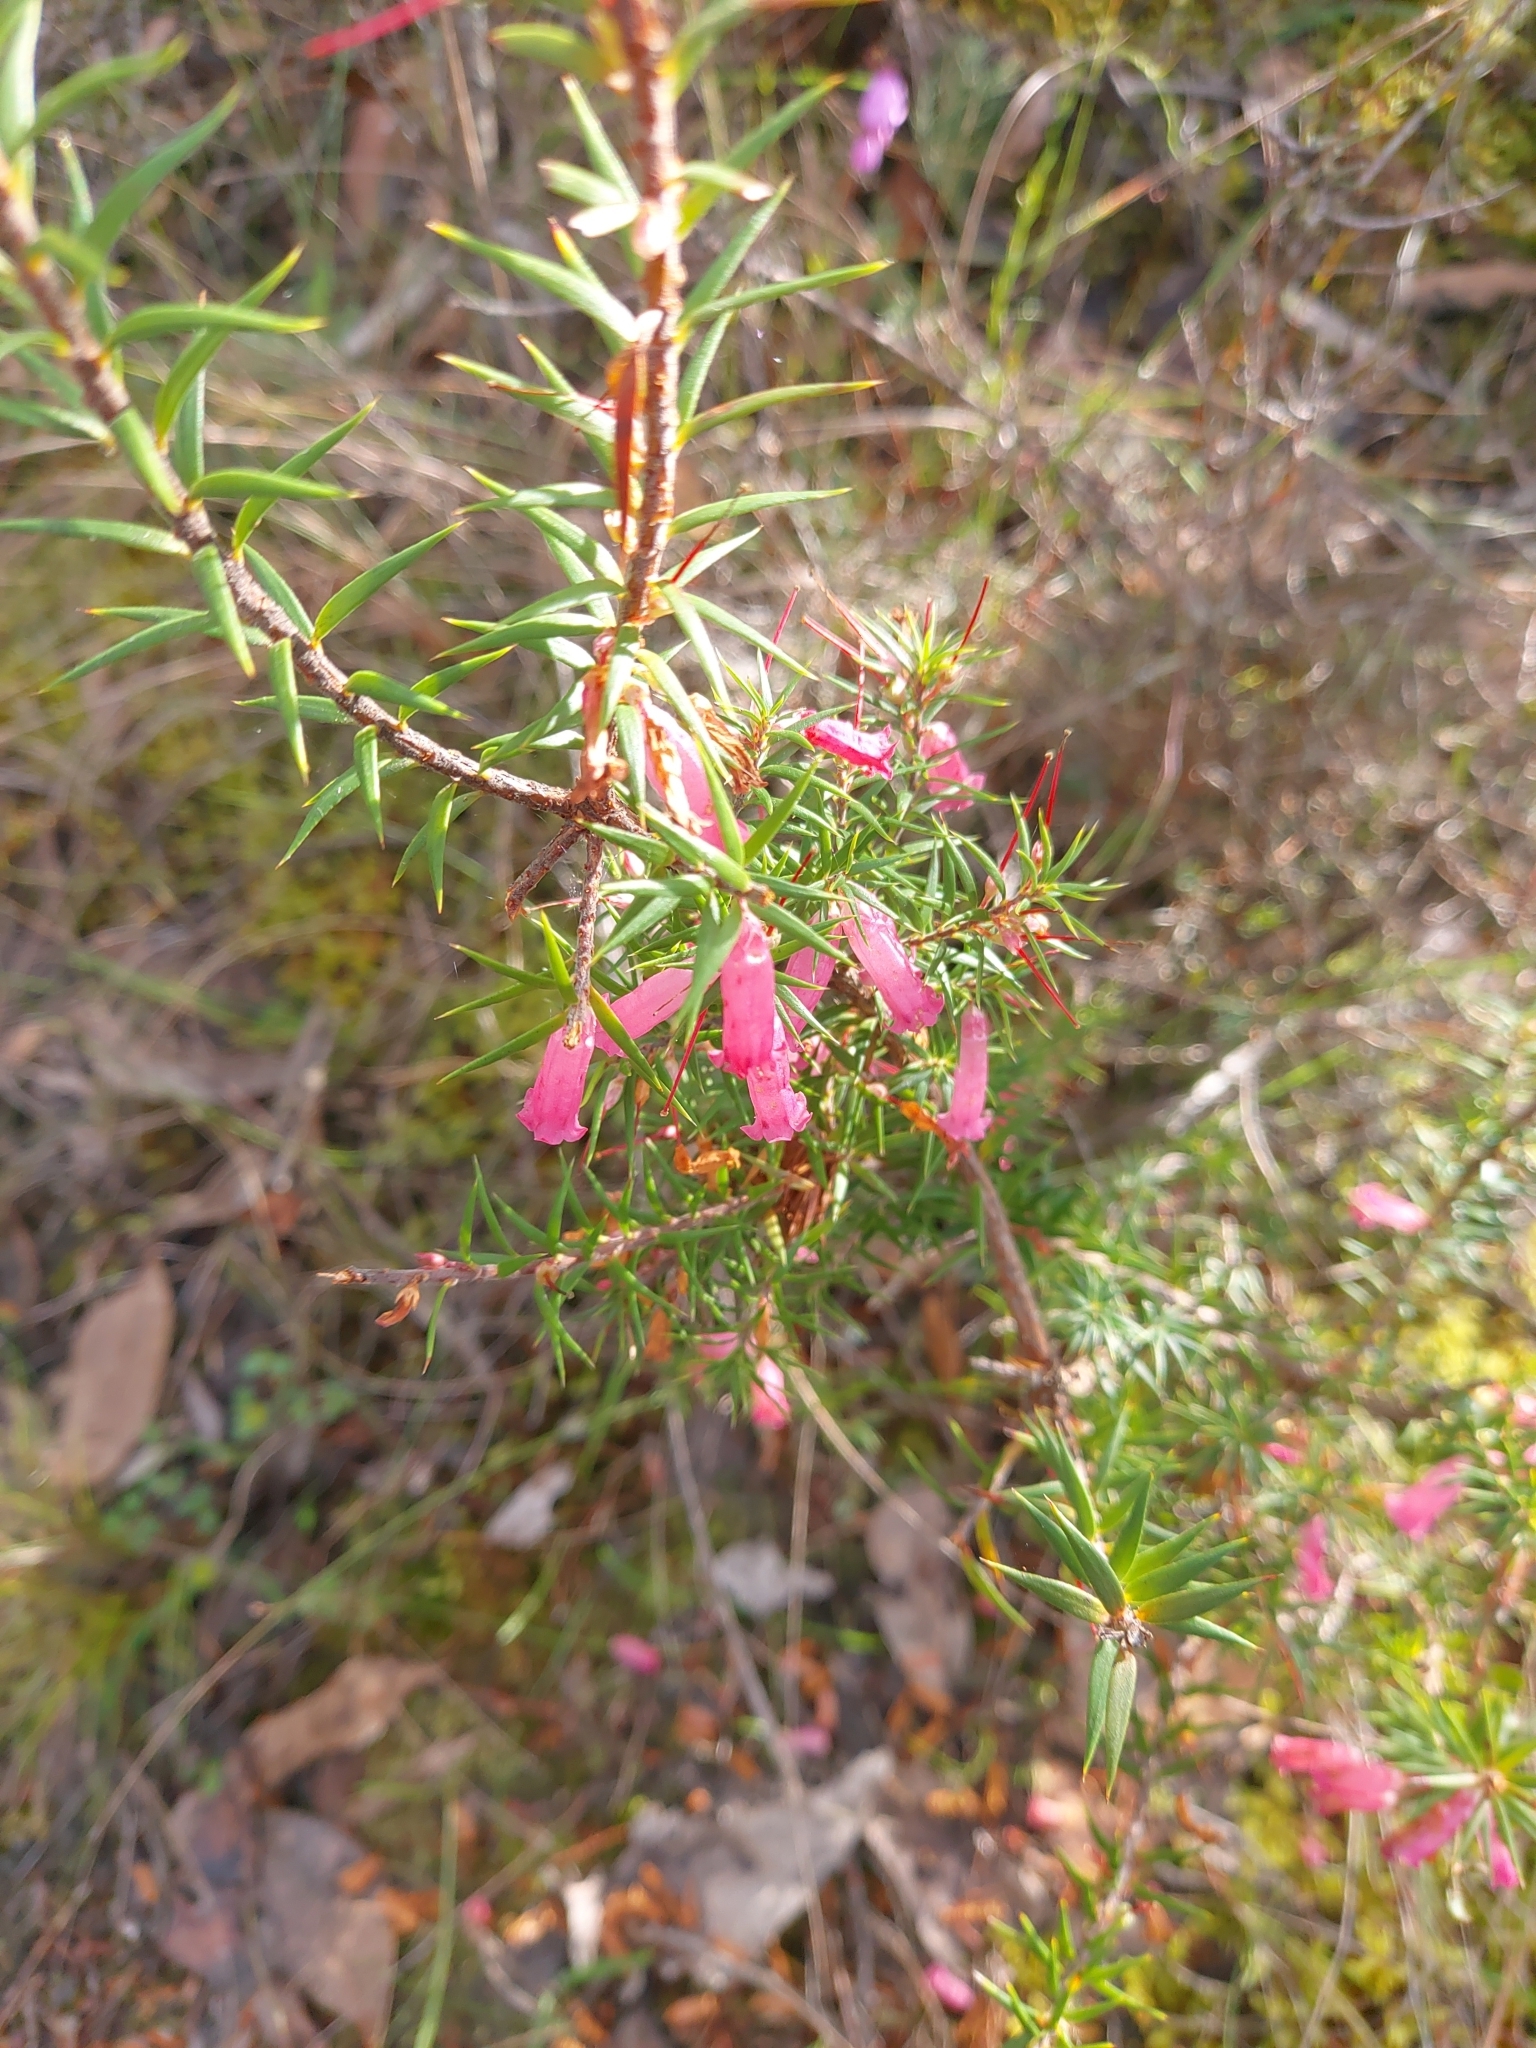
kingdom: Plantae
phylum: Tracheophyta
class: Magnoliopsida
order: Ericales
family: Ericaceae
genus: Epacris
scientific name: Epacris impressa
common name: Common-heath
